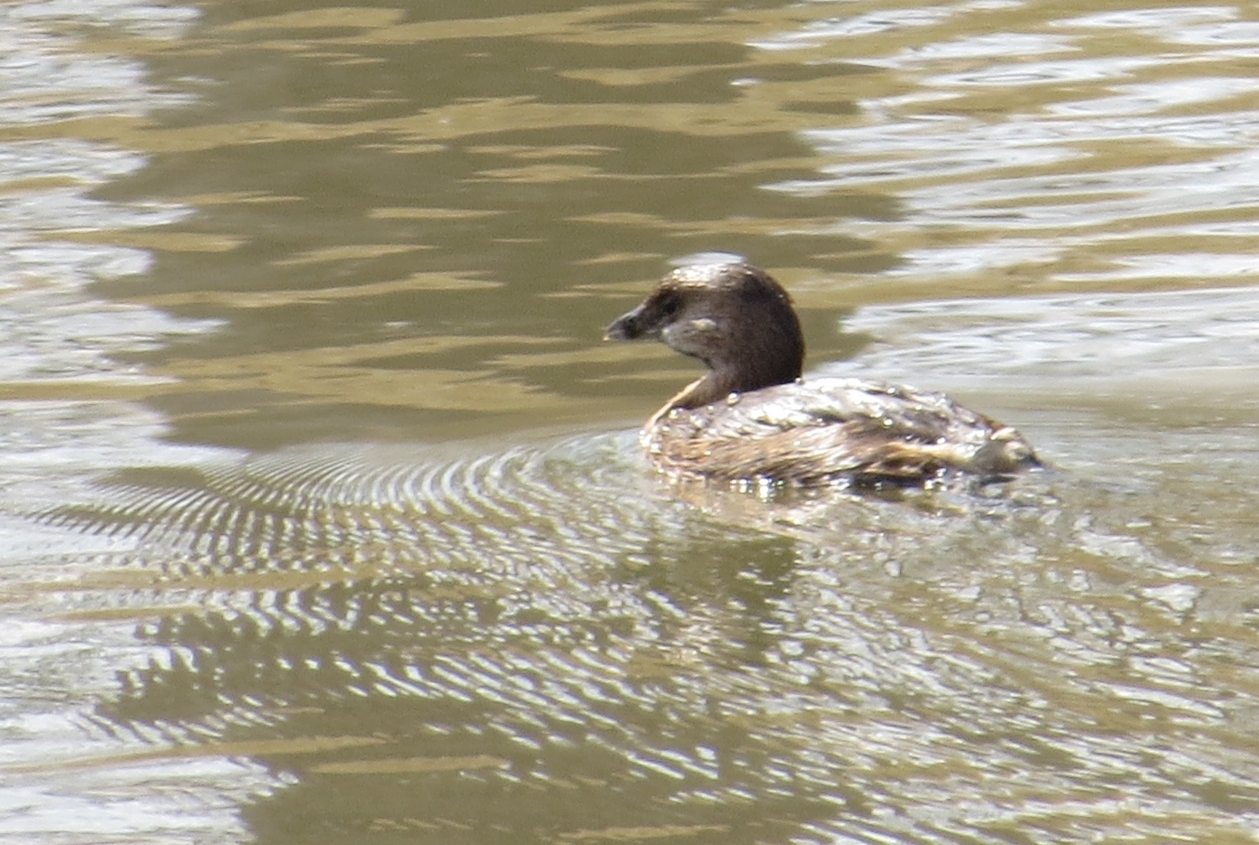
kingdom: Animalia
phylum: Chordata
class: Aves
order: Podicipediformes
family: Podicipedidae
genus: Podilymbus
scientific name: Podilymbus podiceps
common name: Pied-billed grebe
